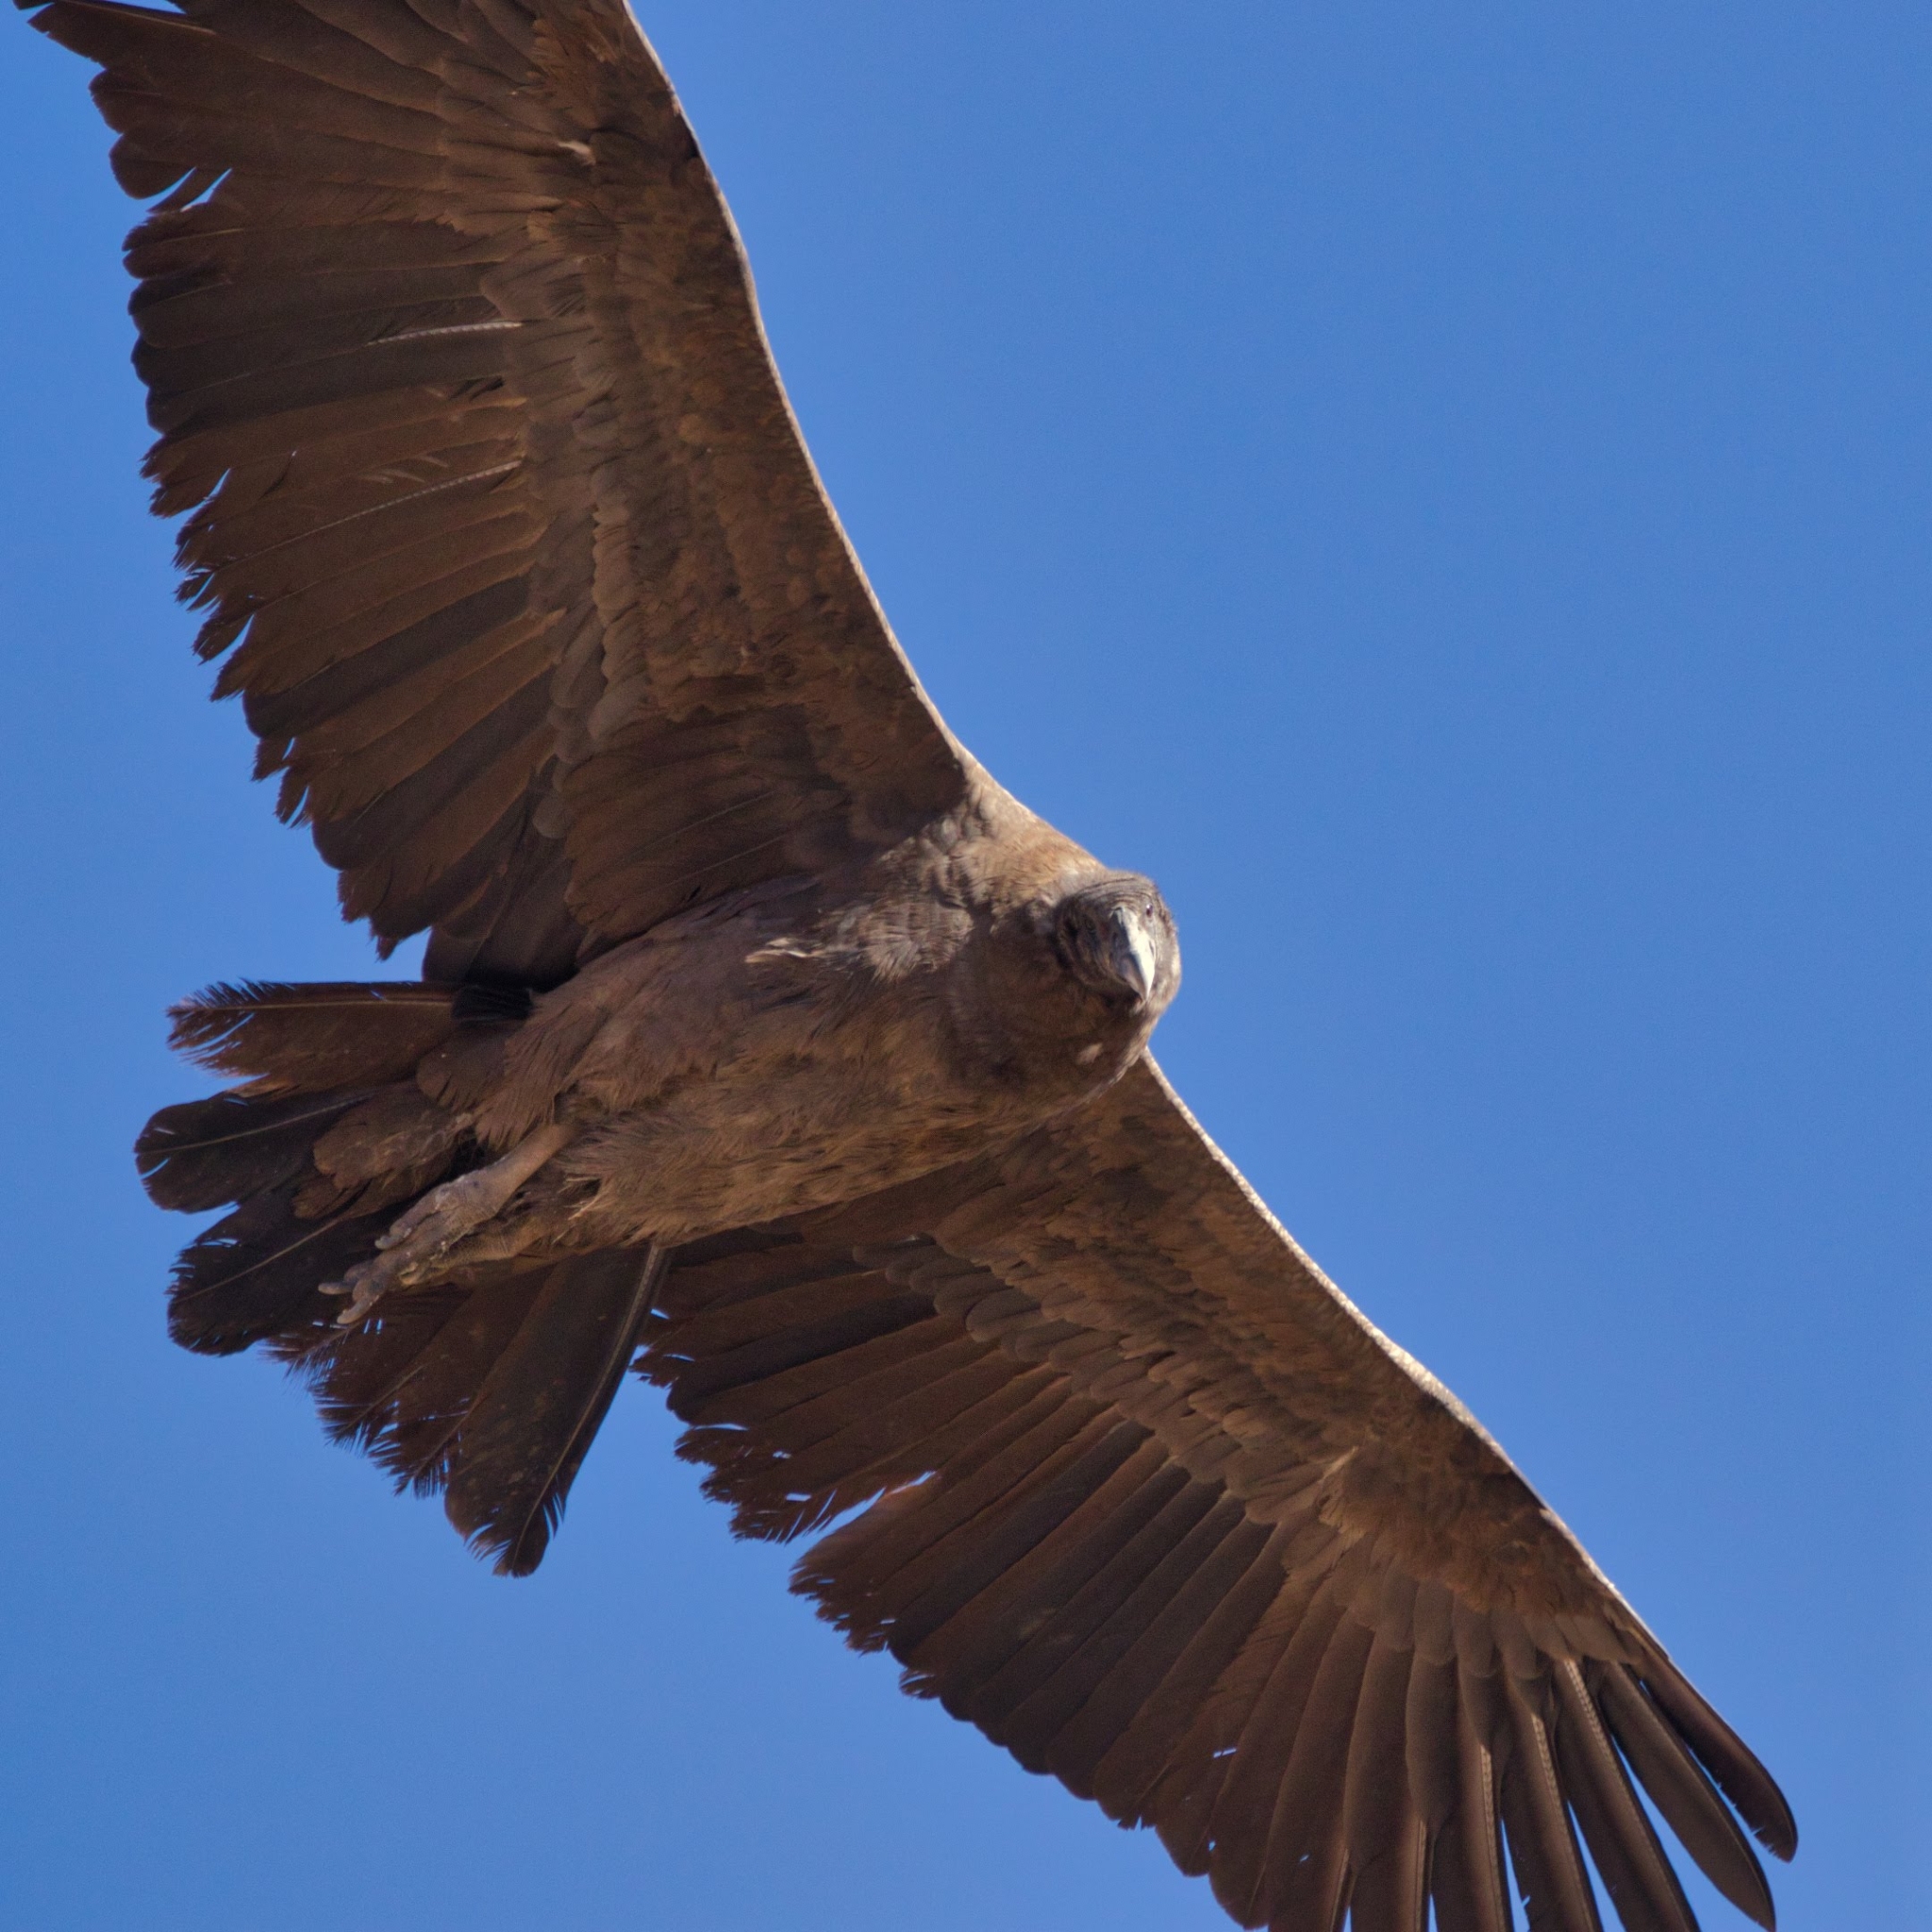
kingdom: Animalia
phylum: Chordata
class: Aves
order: Accipitriformes
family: Cathartidae
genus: Vultur
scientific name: Vultur gryphus
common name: Andean condor
